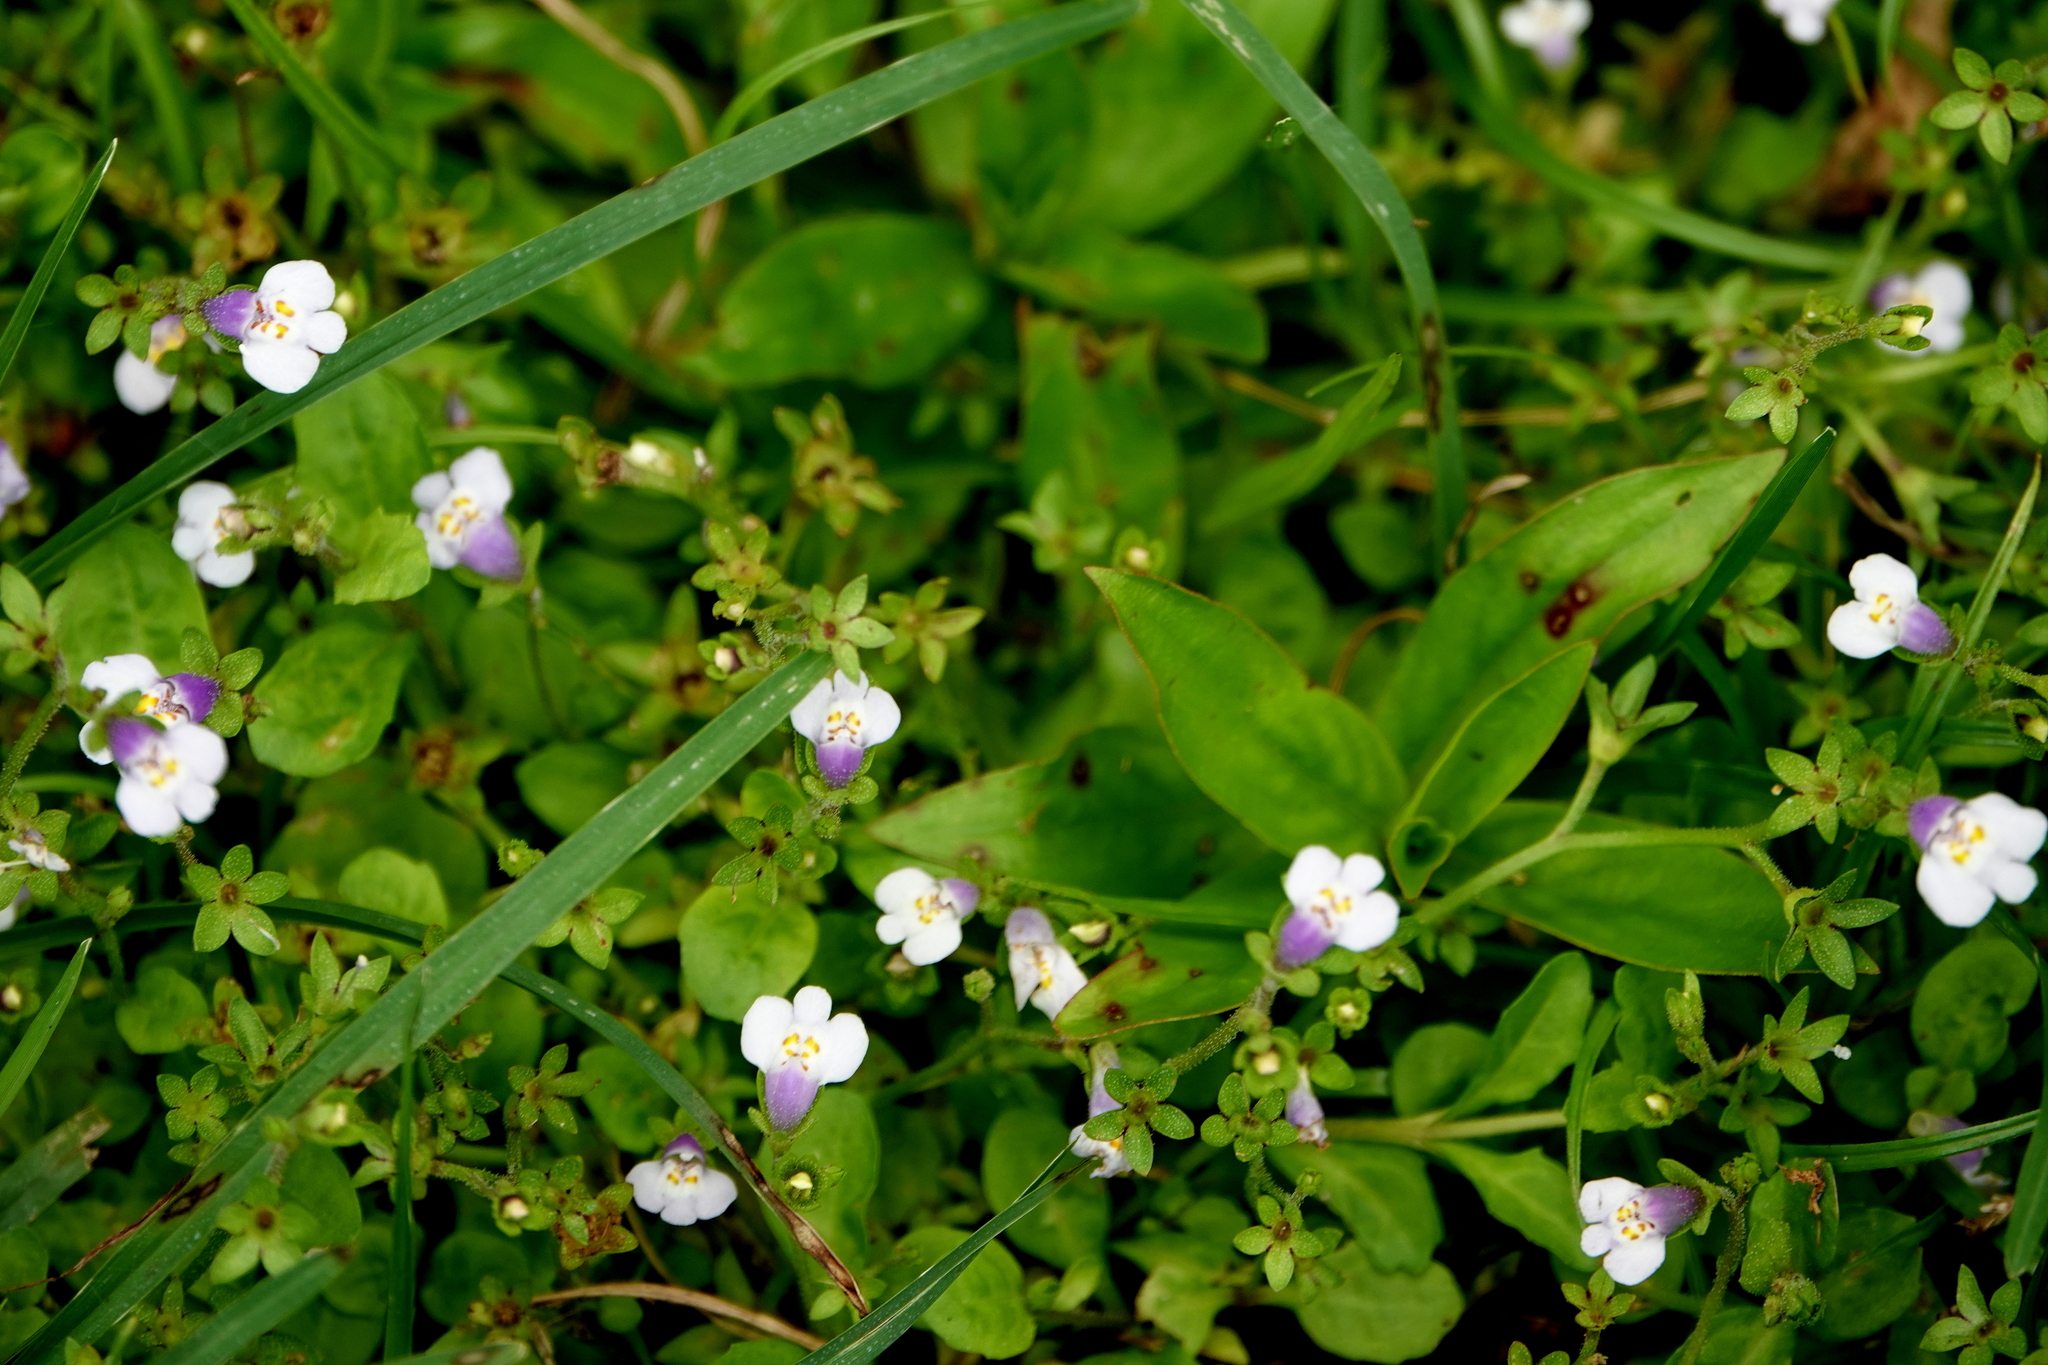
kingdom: Plantae
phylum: Tracheophyta
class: Magnoliopsida
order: Lamiales
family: Mazaceae
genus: Mazus
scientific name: Mazus pumilus
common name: Japanese mazus
